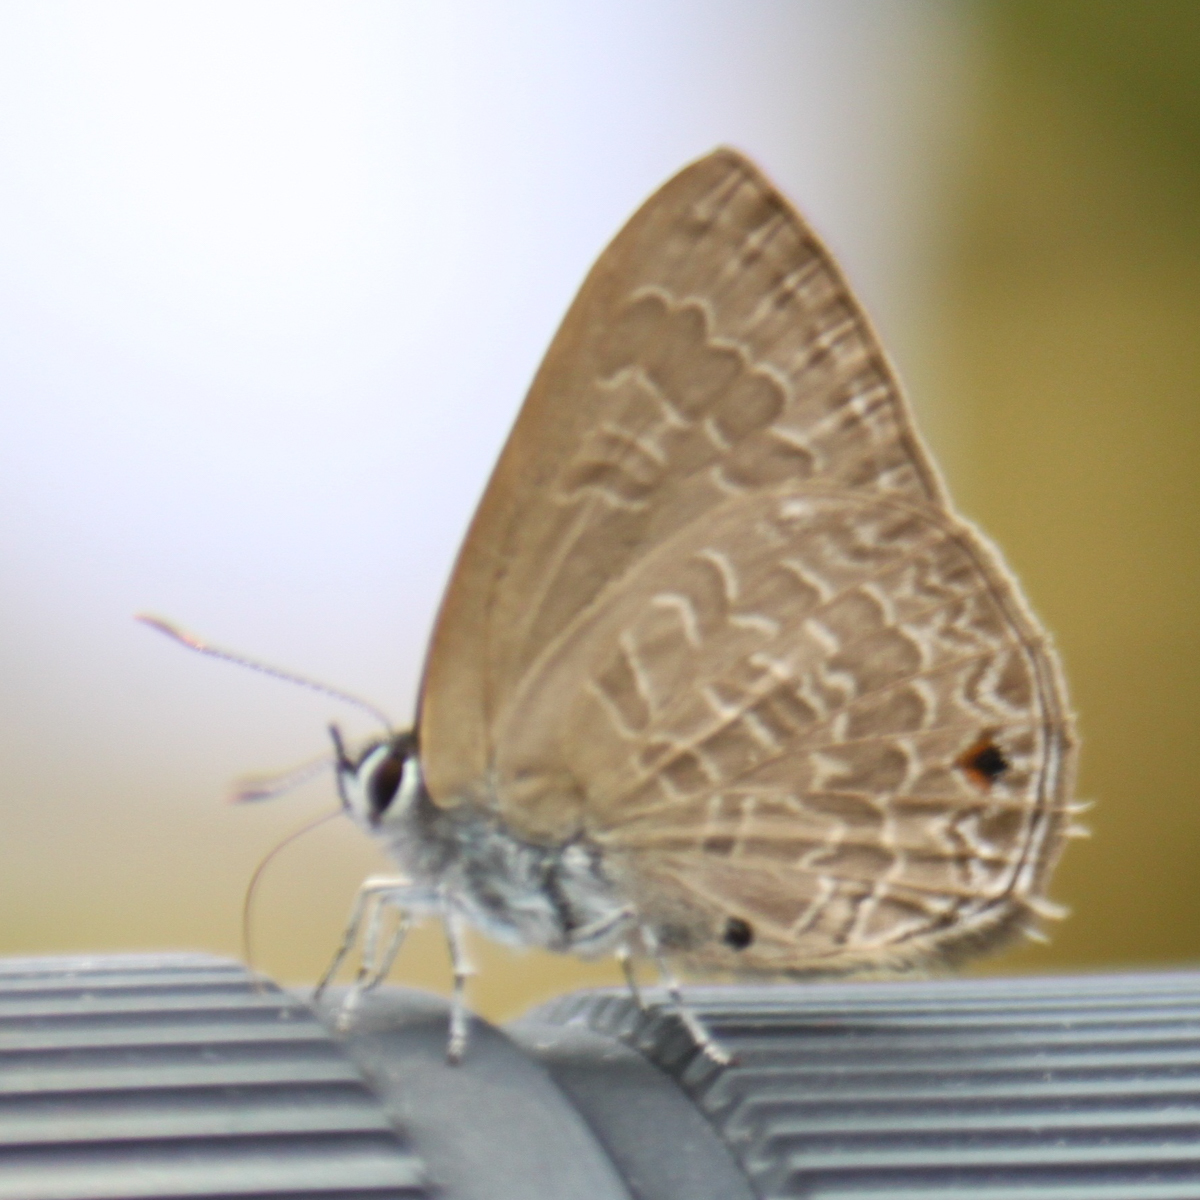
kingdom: Animalia
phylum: Arthropoda
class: Insecta
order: Lepidoptera
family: Lycaenidae
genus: Anthene
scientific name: Anthene emolus
